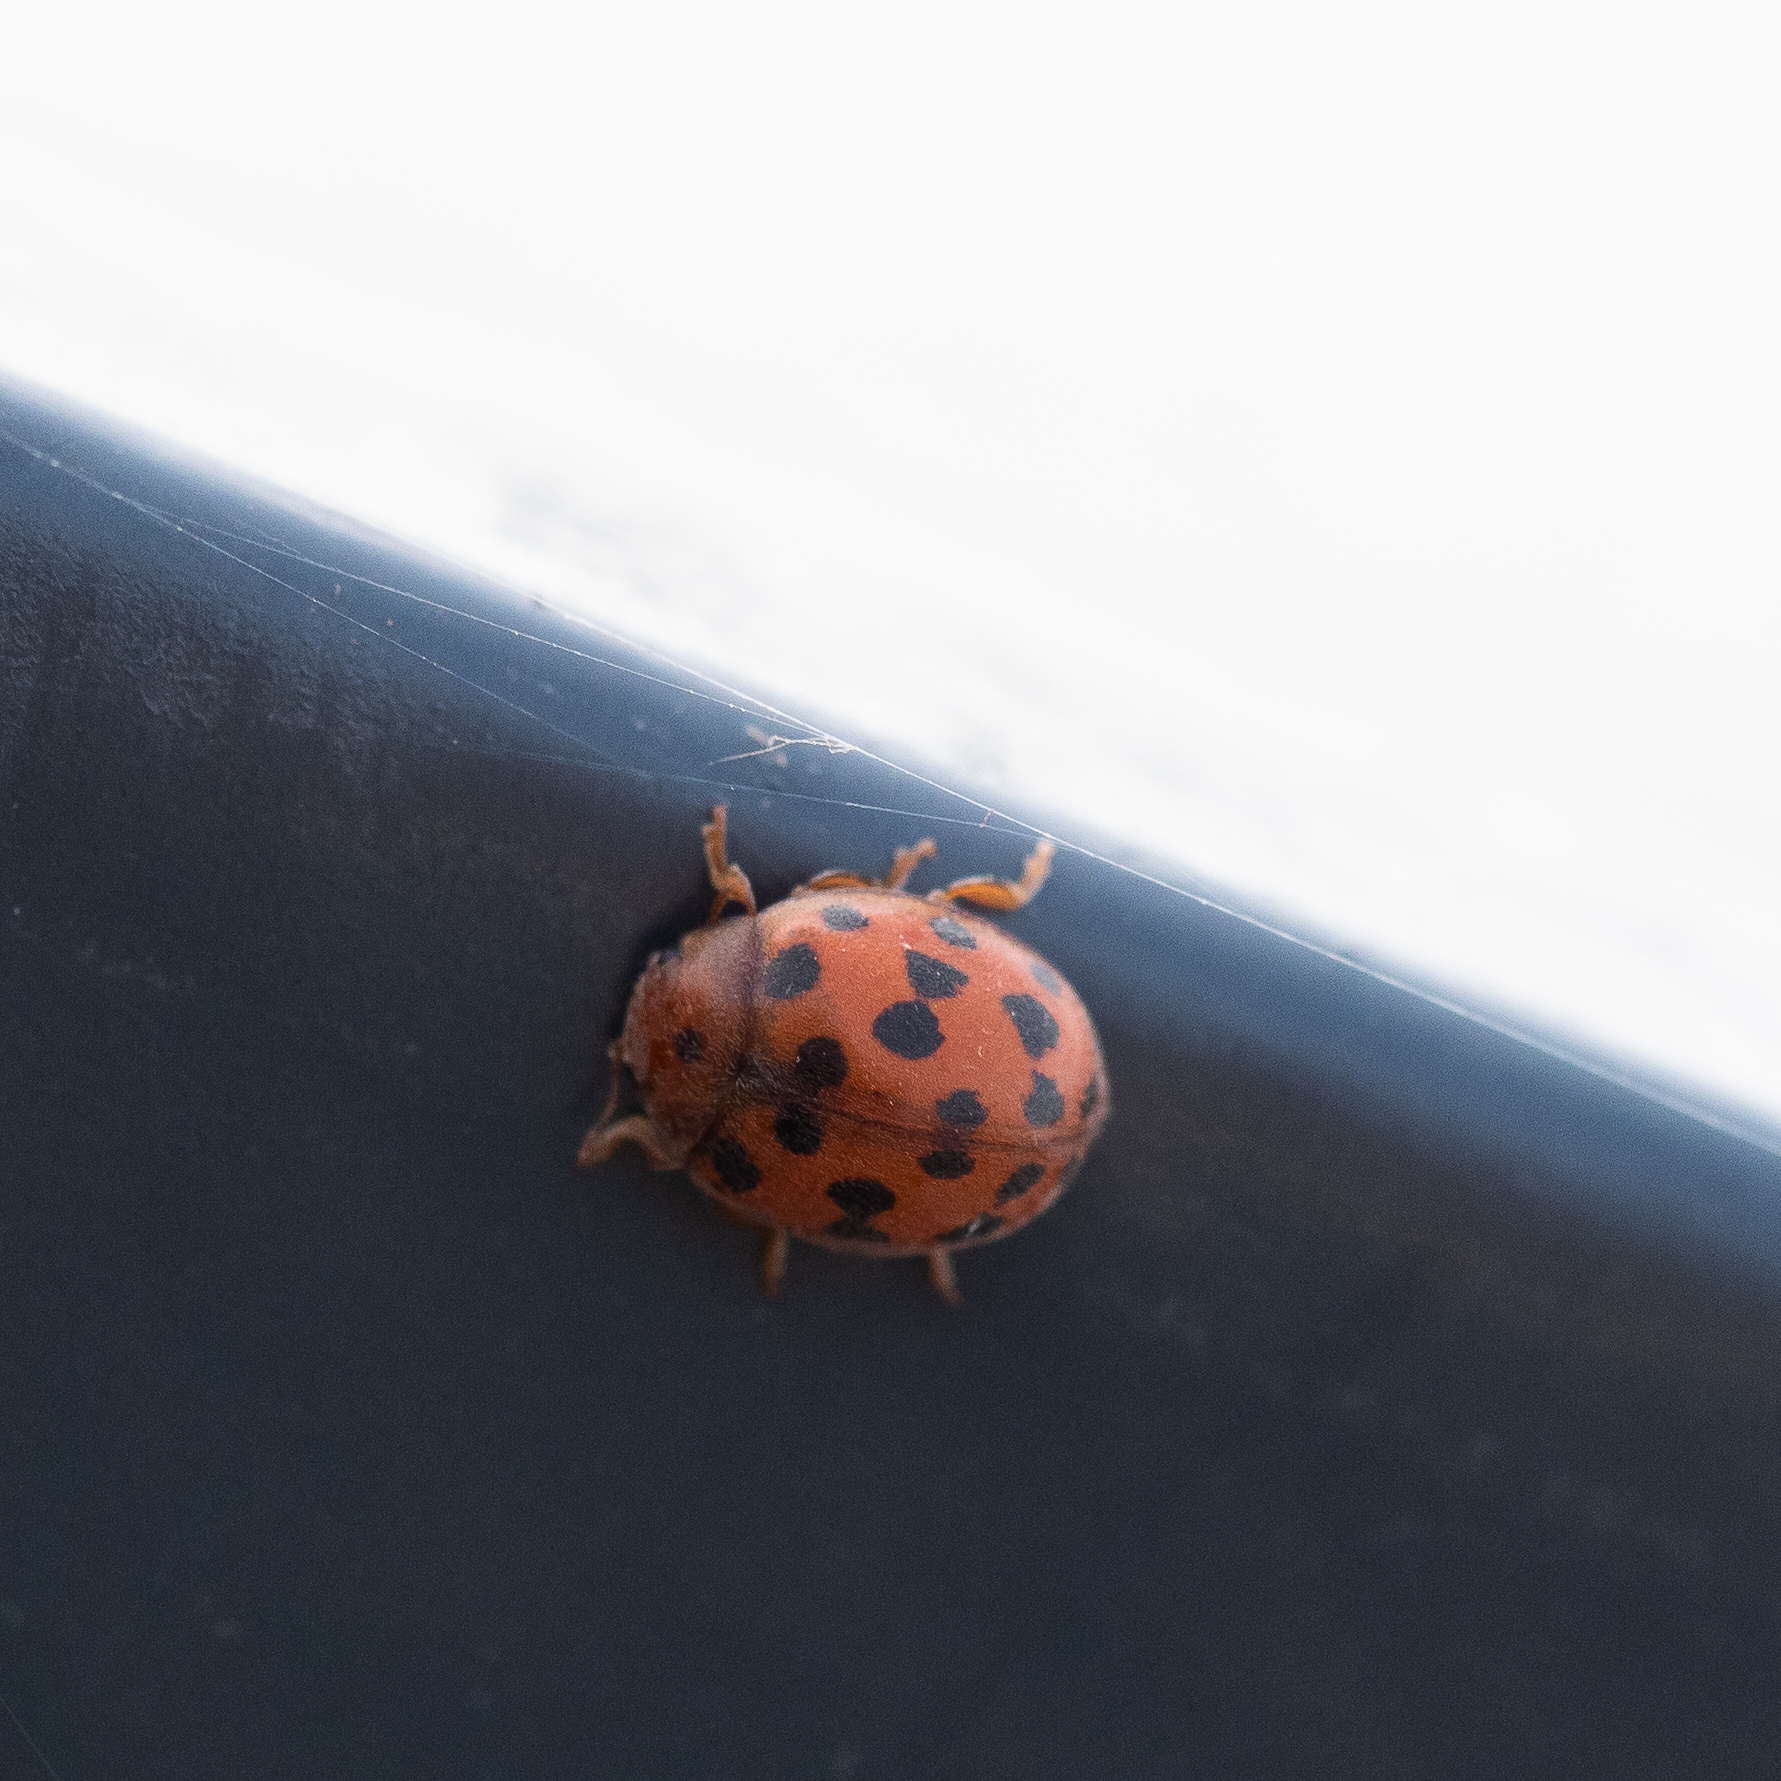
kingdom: Animalia
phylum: Arthropoda
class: Insecta
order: Coleoptera
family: Coccinellidae
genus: Subcoccinella
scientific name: Subcoccinella vigintiquatuorpunctata
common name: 24-spot ladybird
